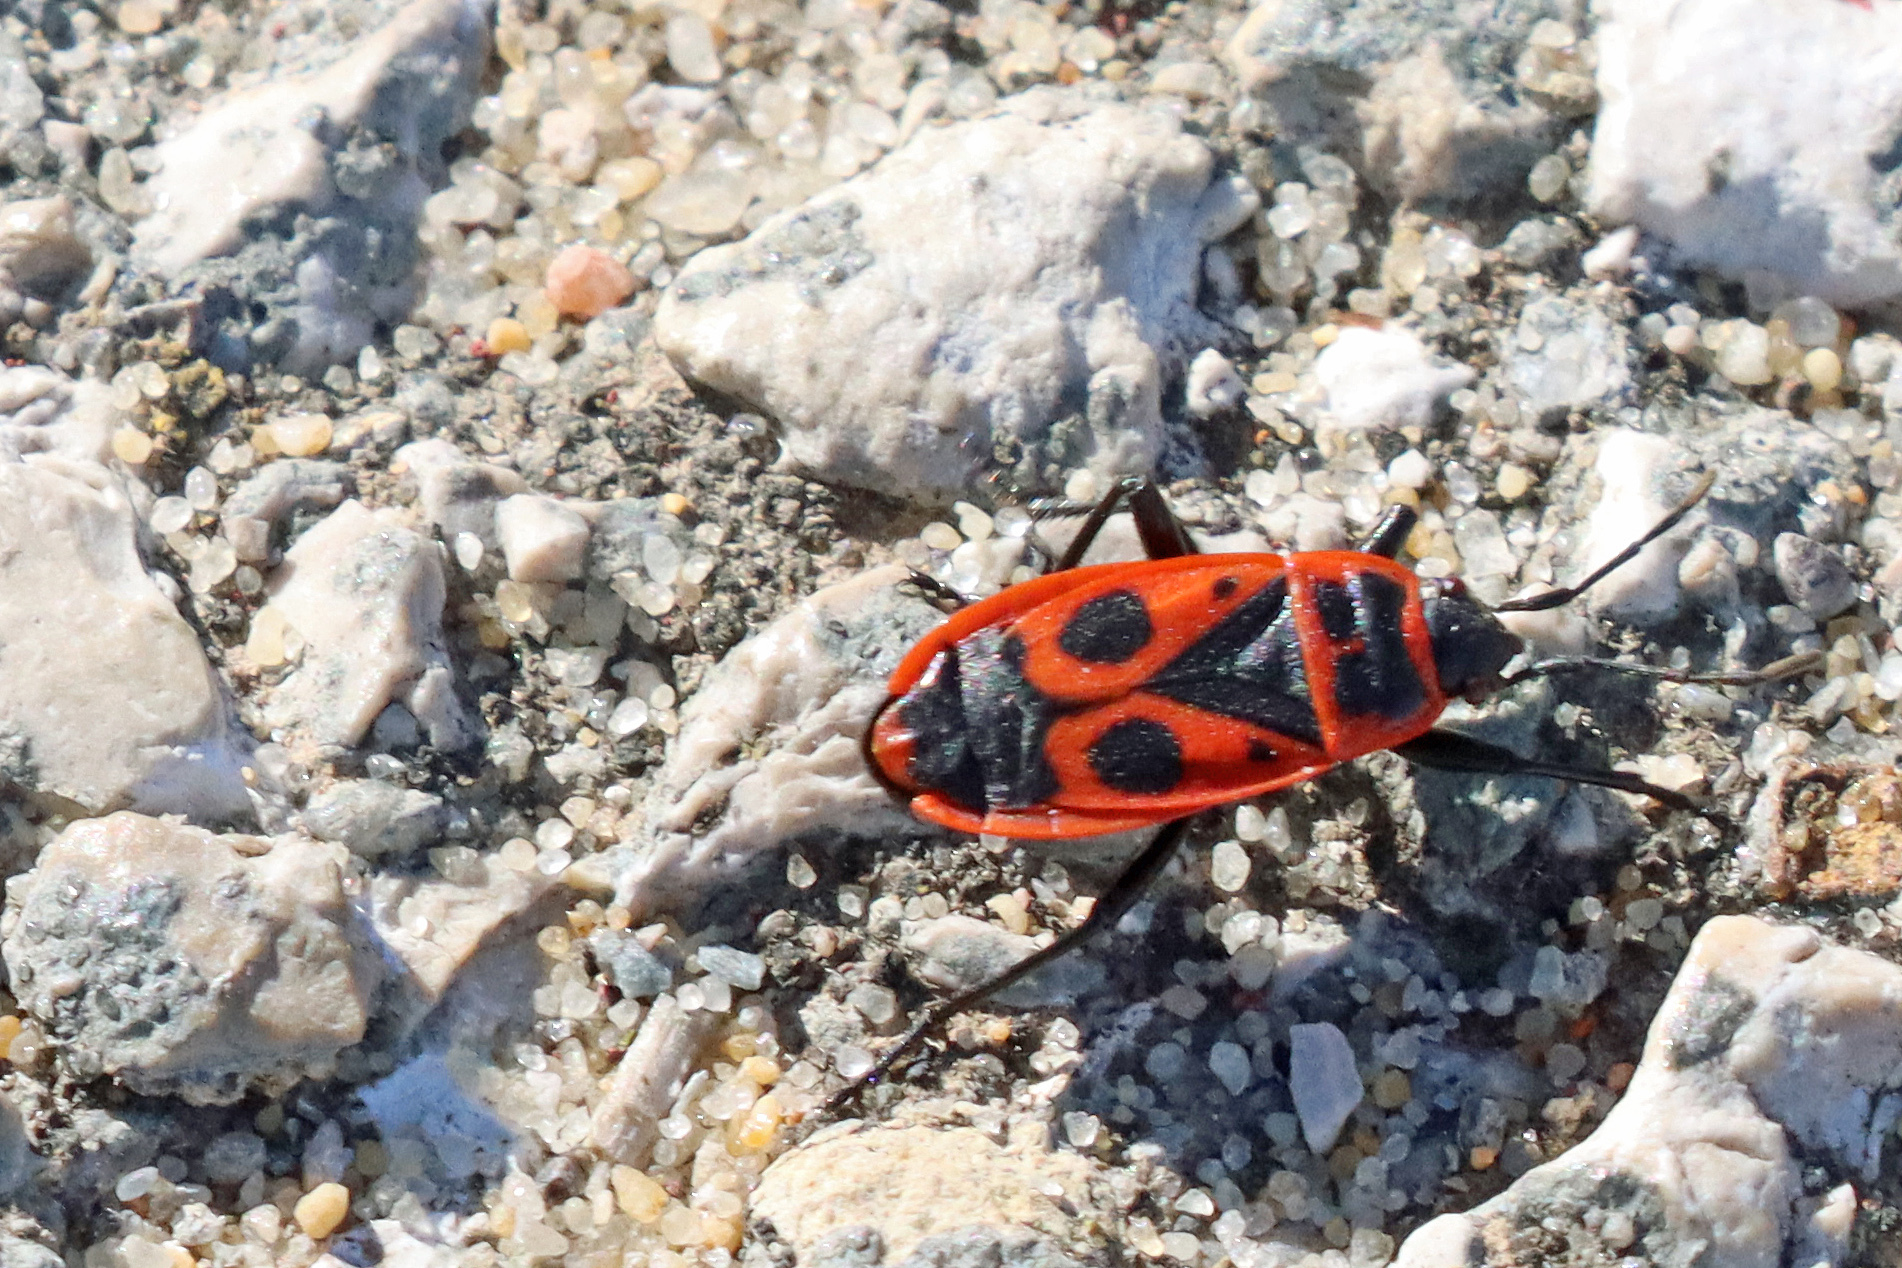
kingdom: Animalia
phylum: Arthropoda
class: Insecta
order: Hemiptera
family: Pyrrhocoridae
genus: Pyrrhocoris
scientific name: Pyrrhocoris apterus
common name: Firebug
